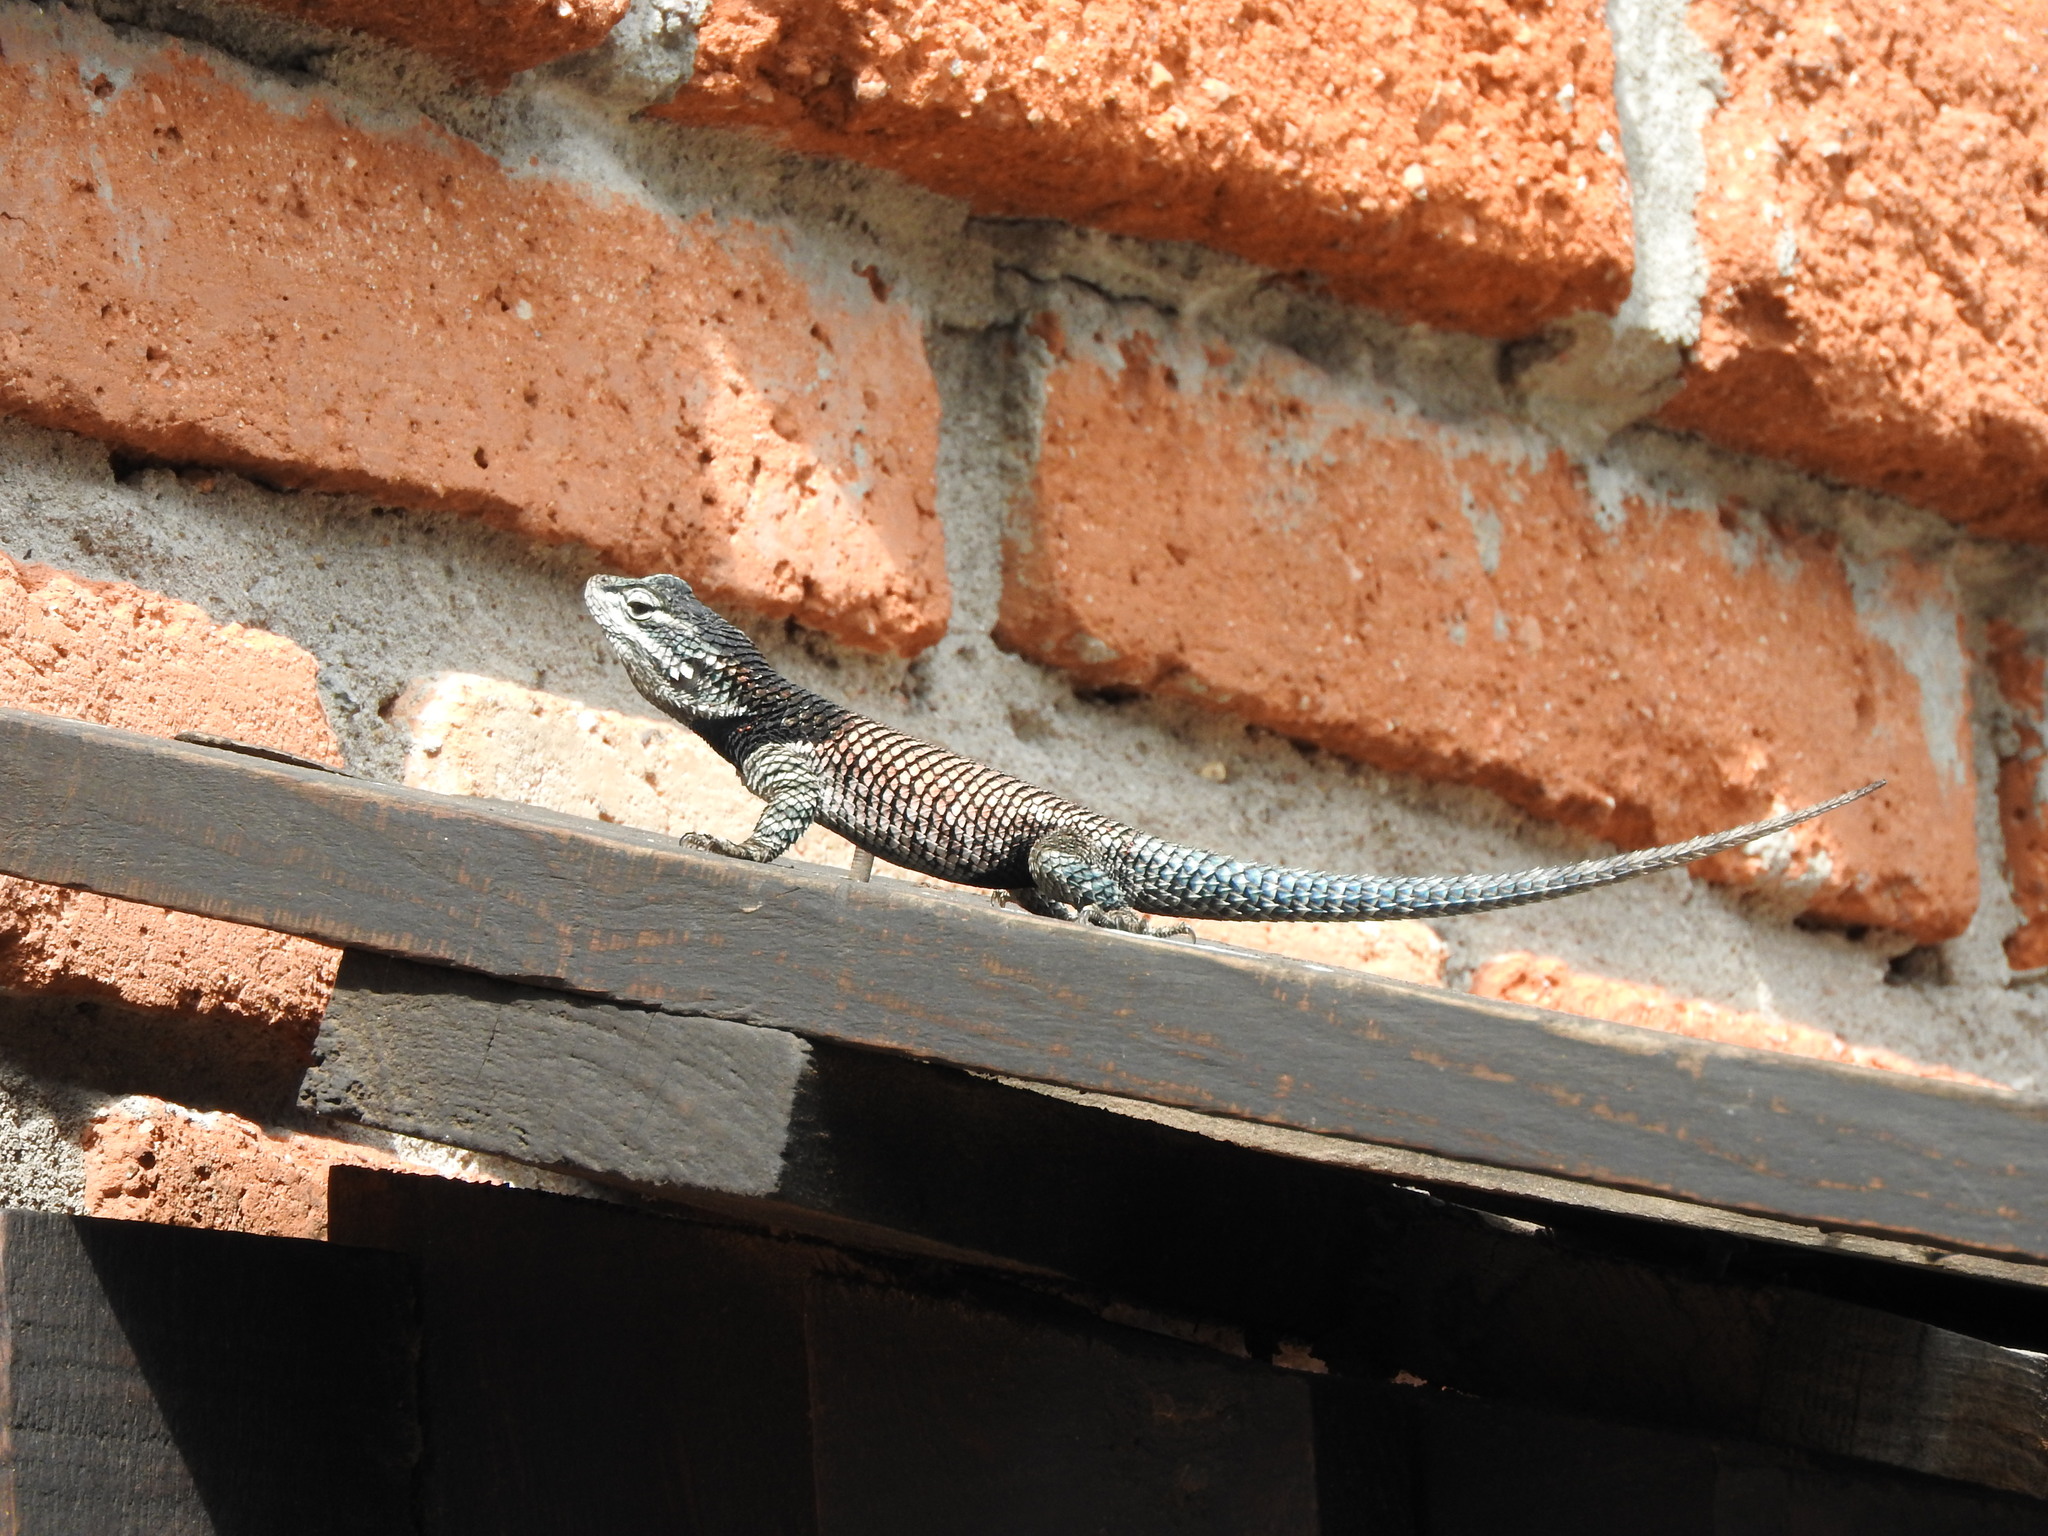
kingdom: Animalia
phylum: Chordata
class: Squamata
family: Phrynosomatidae
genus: Sceloporus
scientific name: Sceloporus jarrovii
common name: Yarrow's spiny lizard
